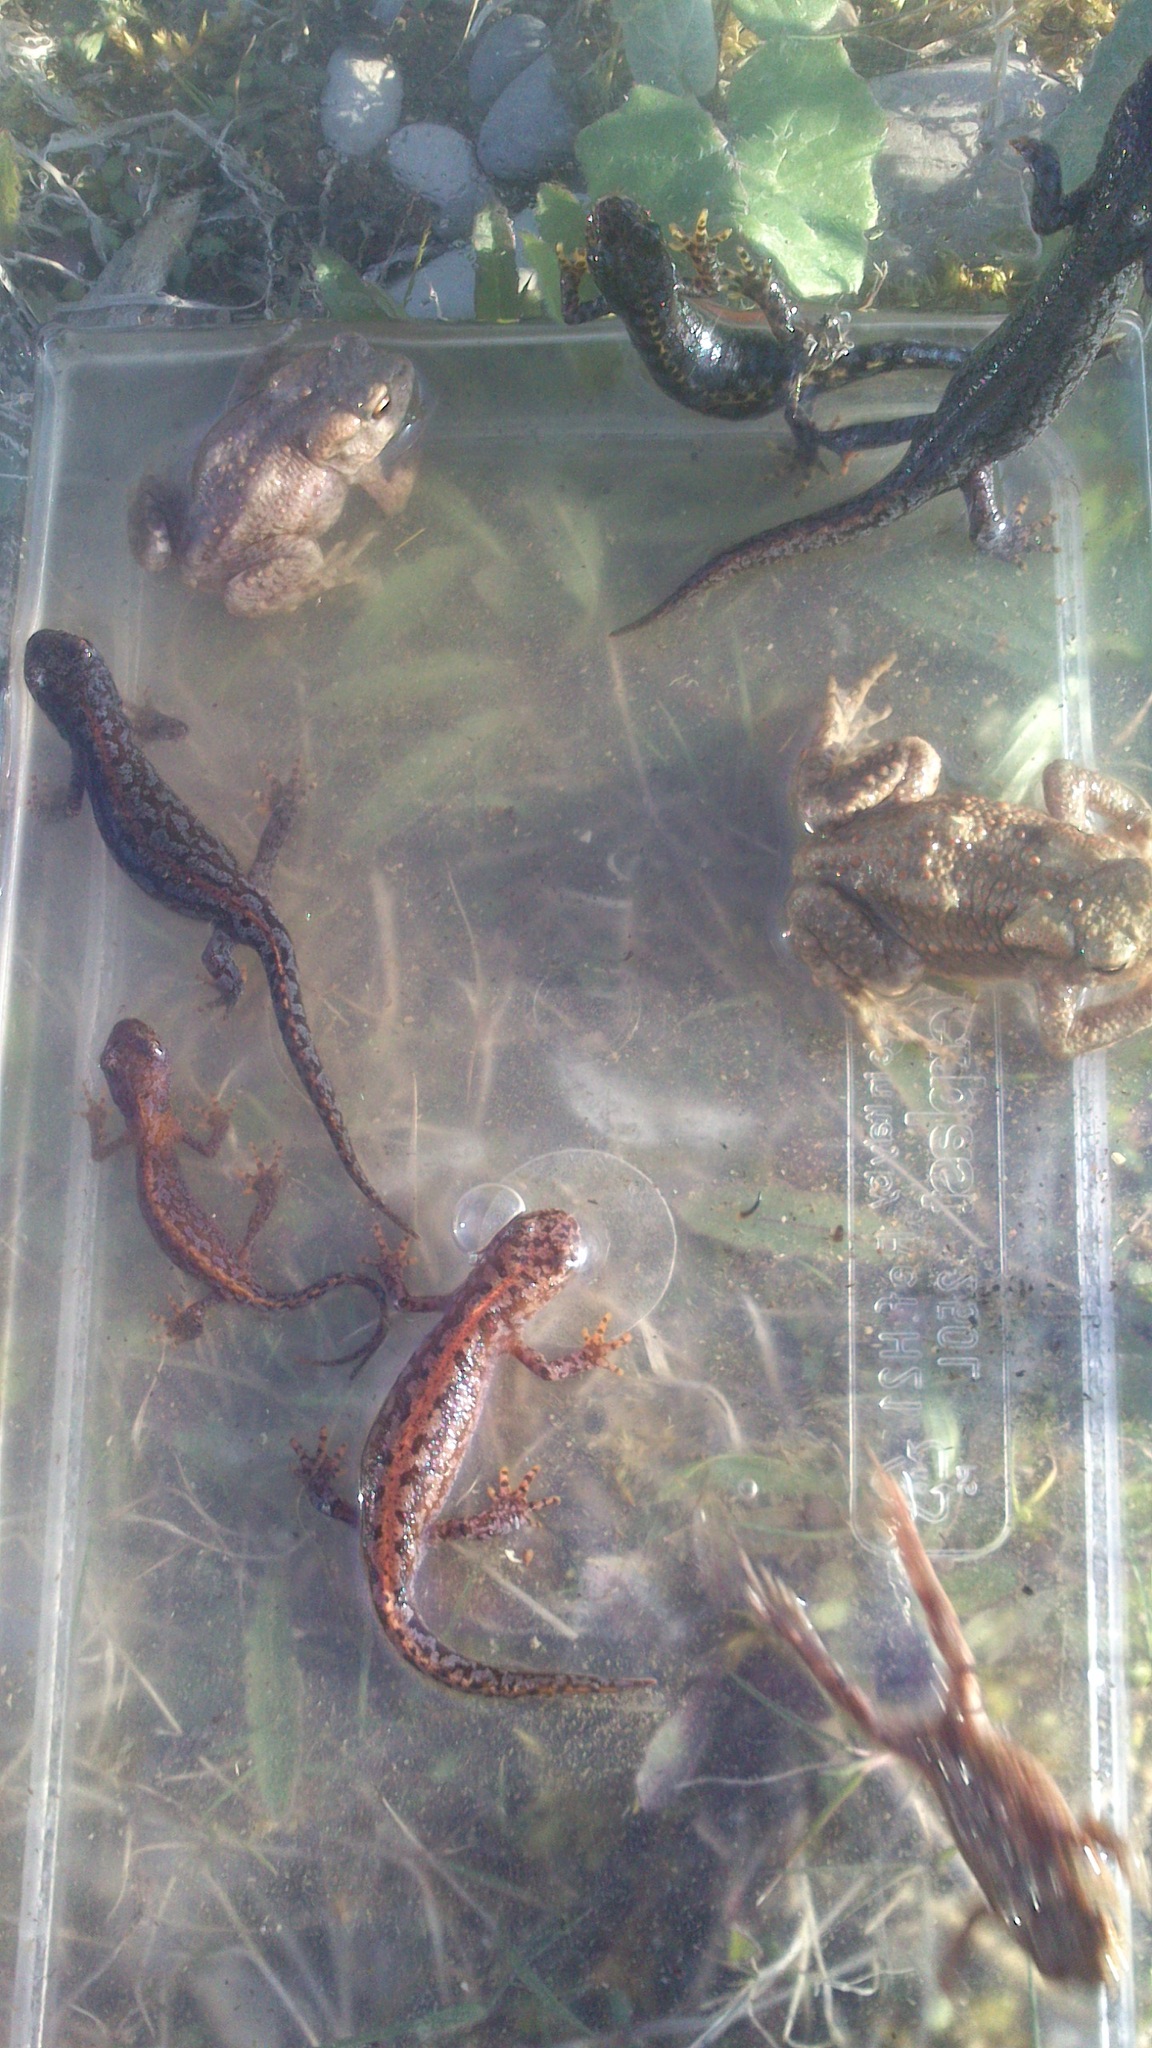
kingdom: Animalia
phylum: Chordata
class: Amphibia
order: Caudata
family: Salamandridae
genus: Ichthyosaura
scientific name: Ichthyosaura alpestris
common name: Alpine newt
